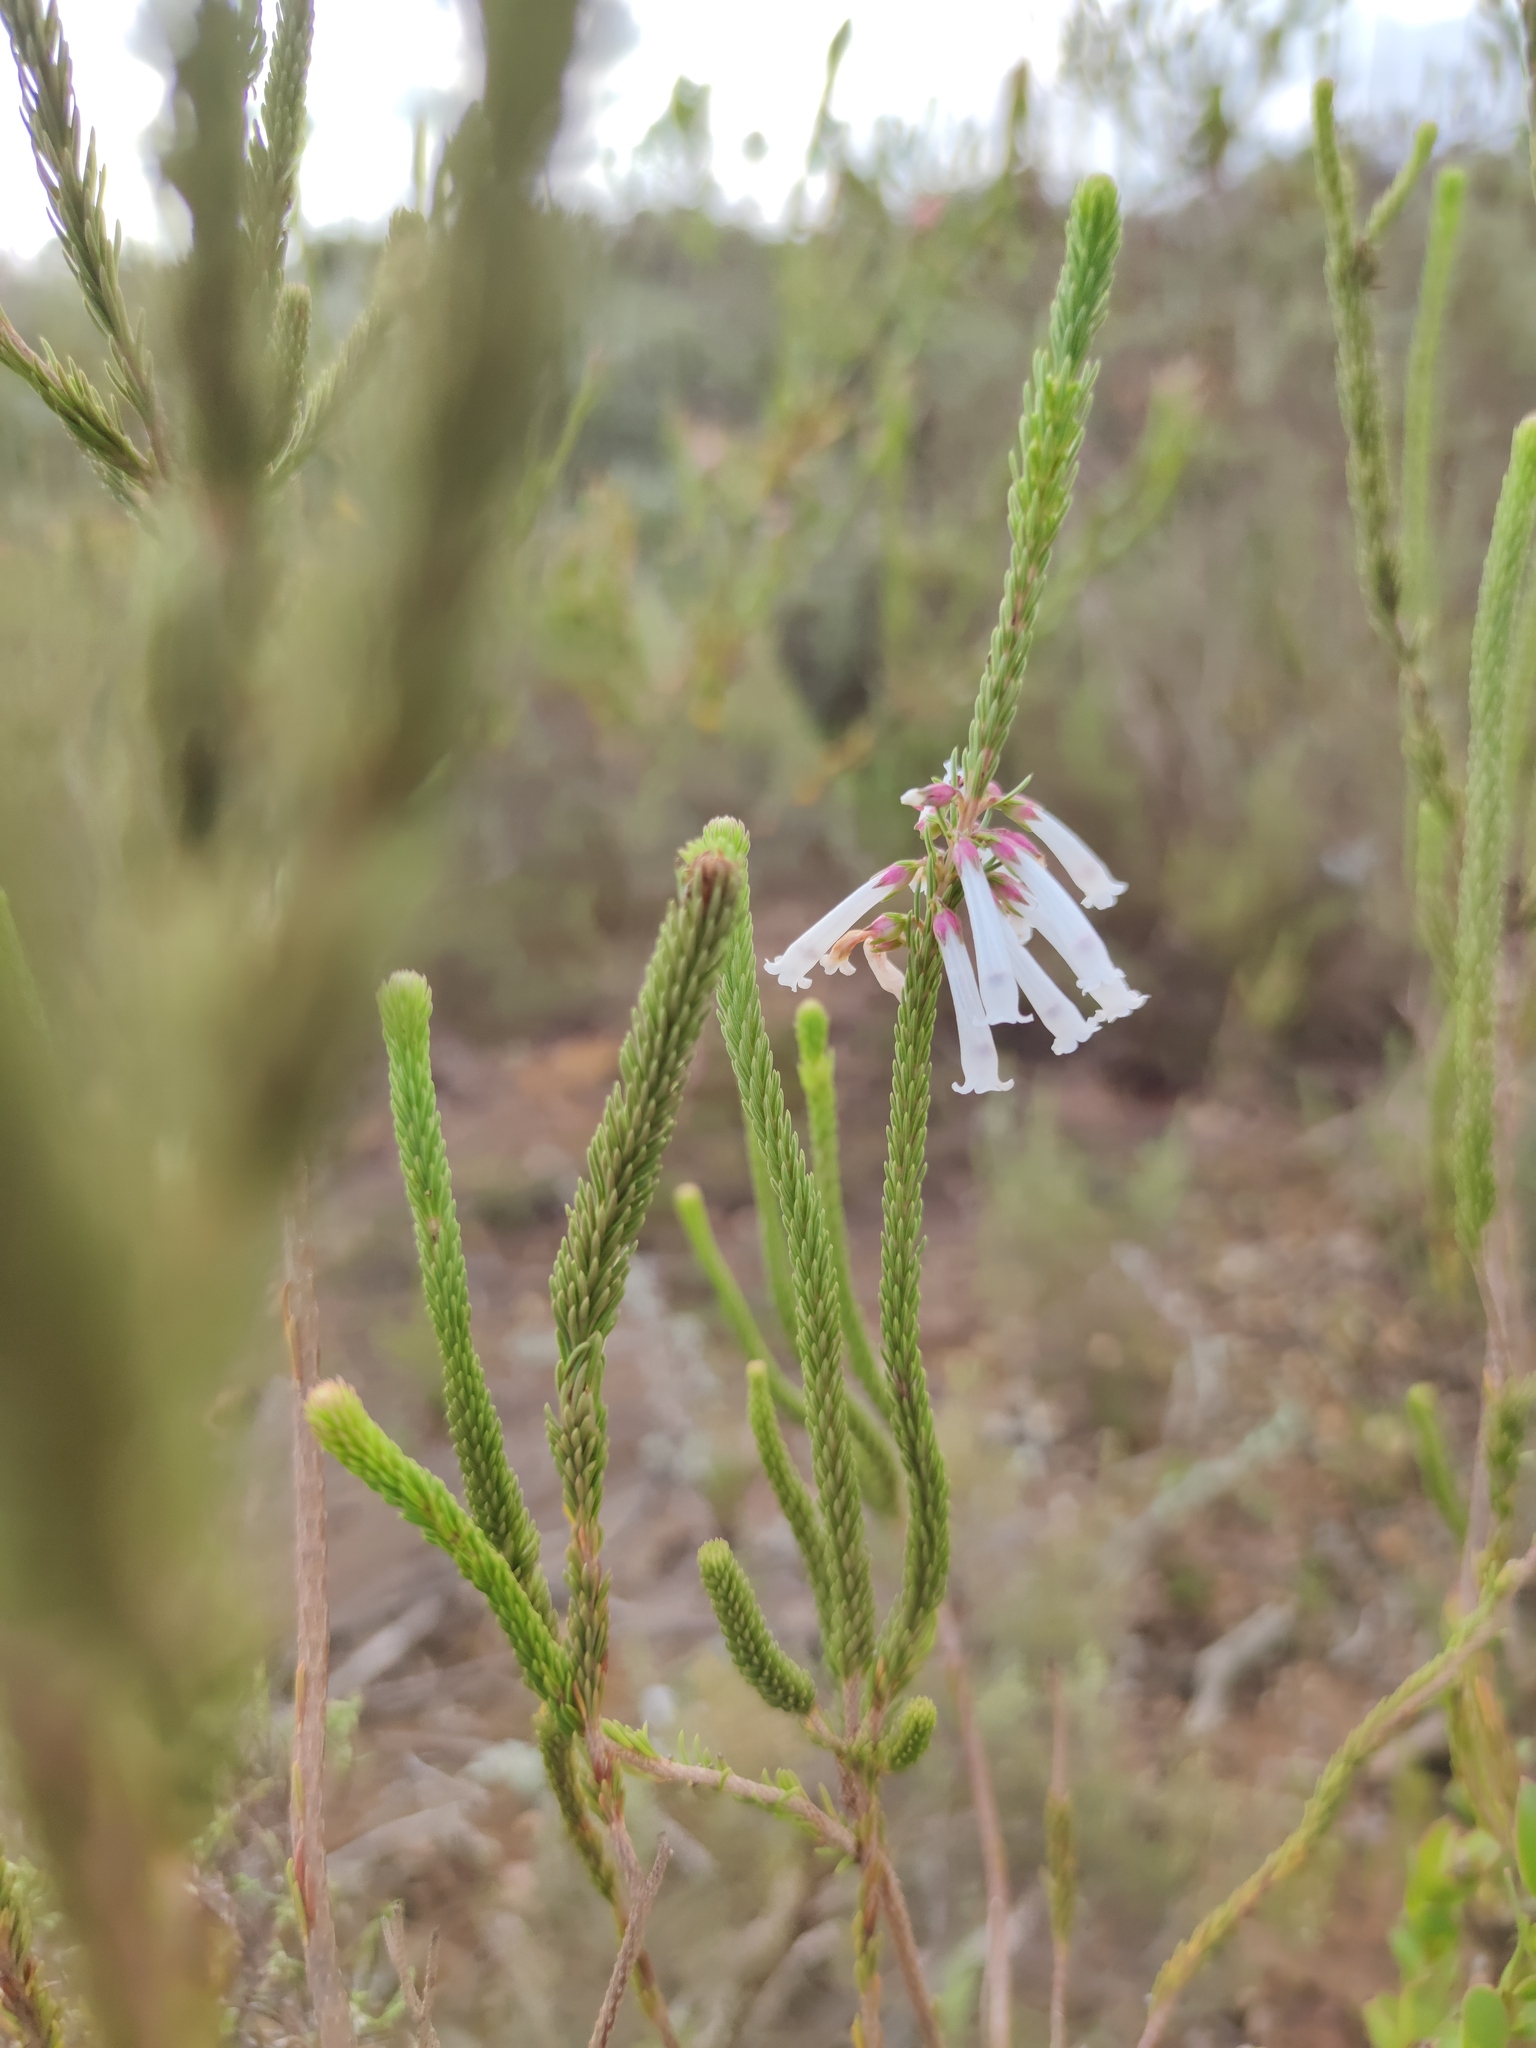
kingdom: Plantae
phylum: Tracheophyta
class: Magnoliopsida
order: Ericales
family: Ericaceae
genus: Erica
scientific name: Erica regia
